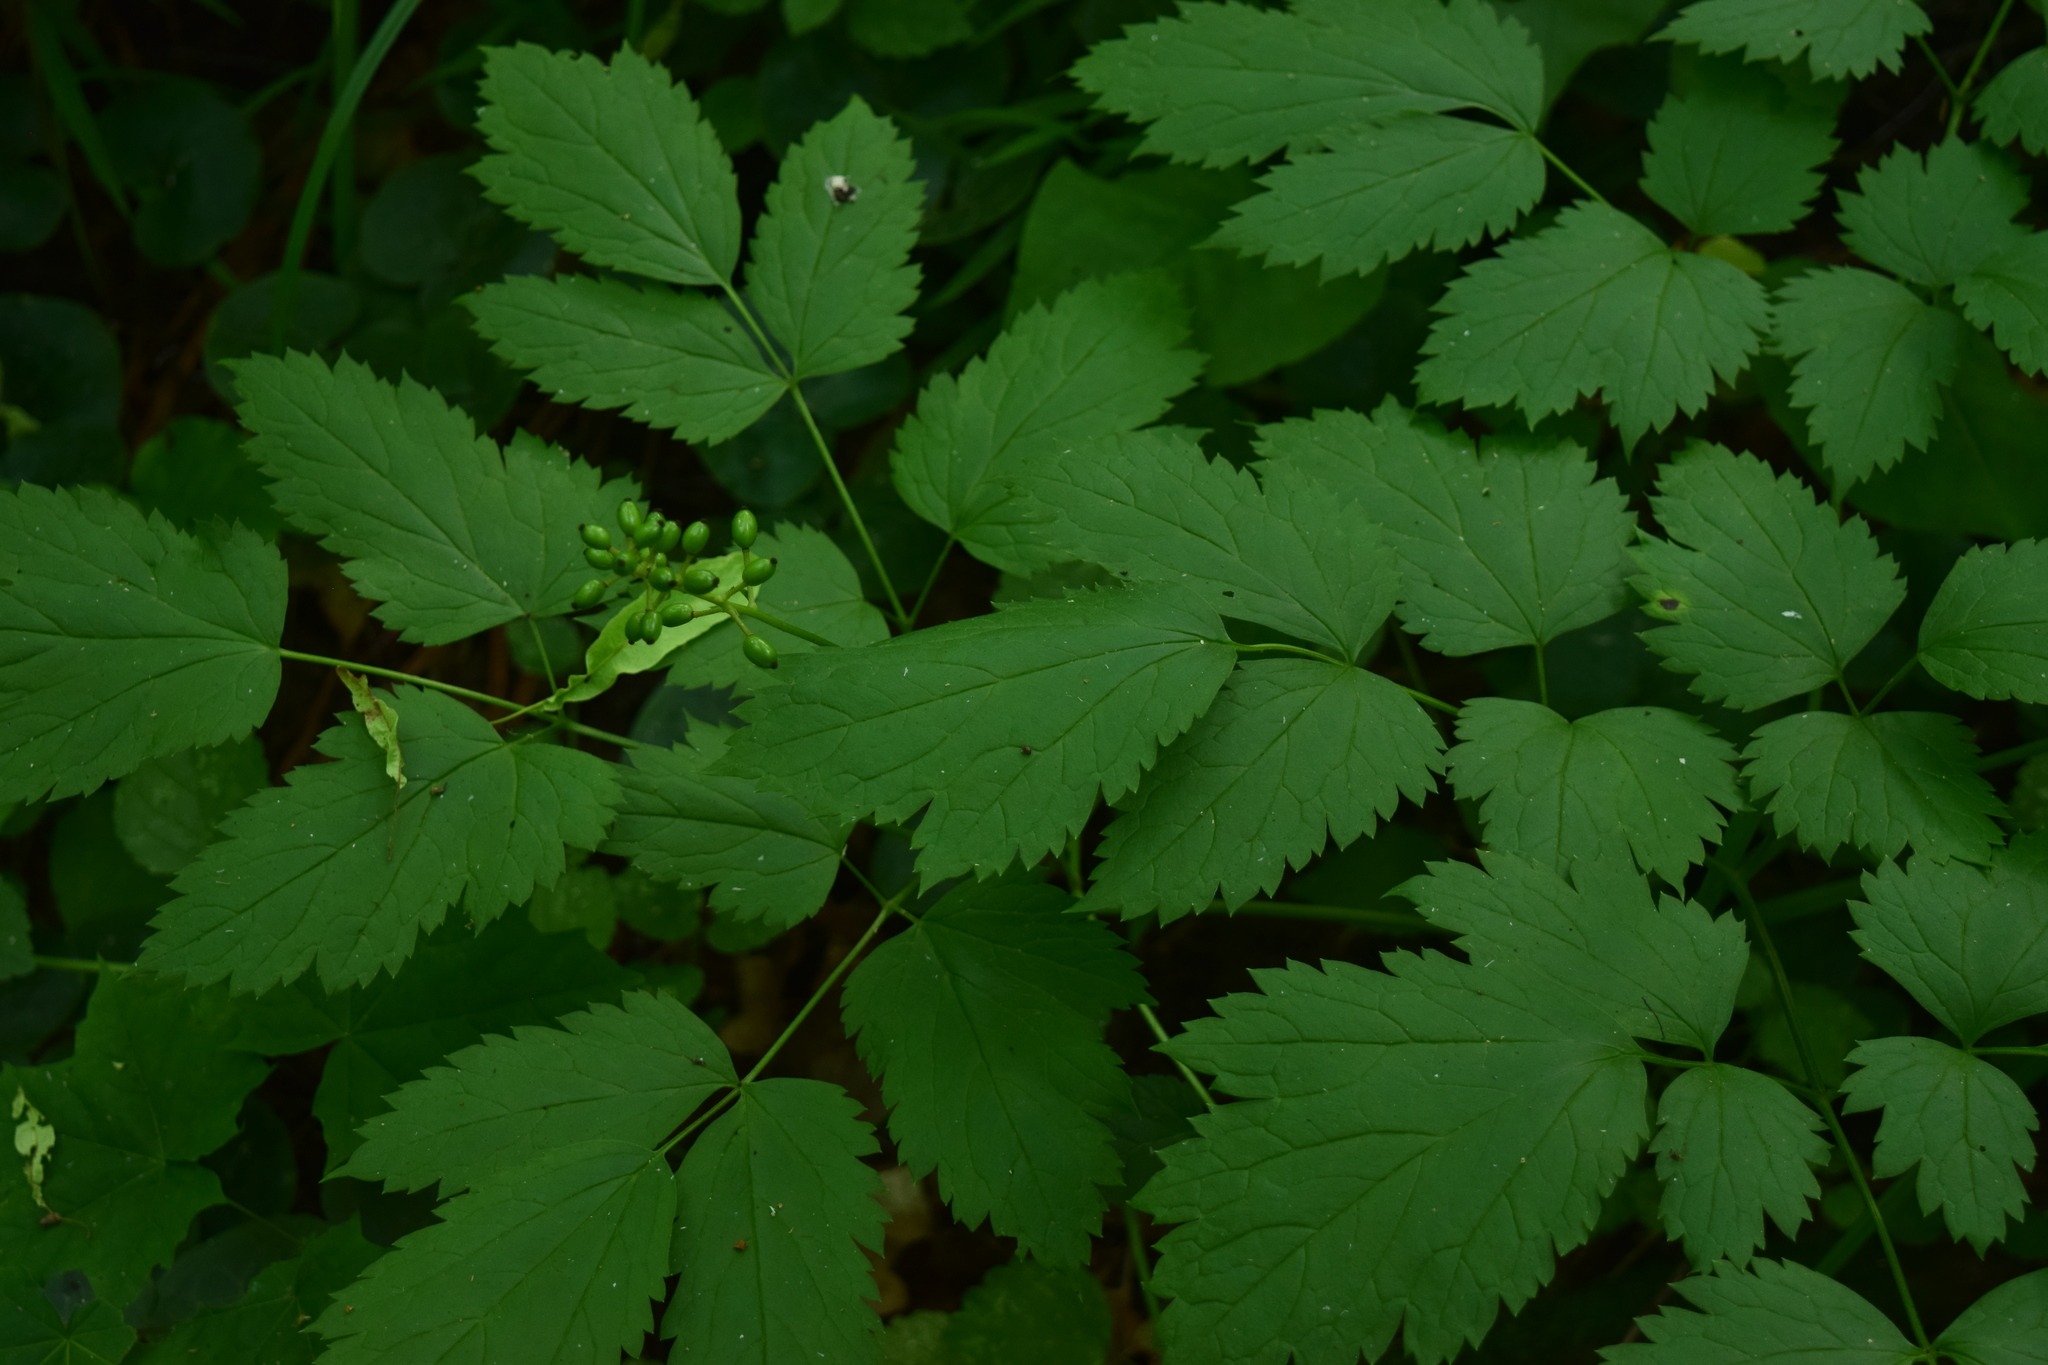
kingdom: Plantae
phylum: Tracheophyta
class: Magnoliopsida
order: Ranunculales
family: Ranunculaceae
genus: Actaea
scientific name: Actaea spicata
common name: Baneberry
